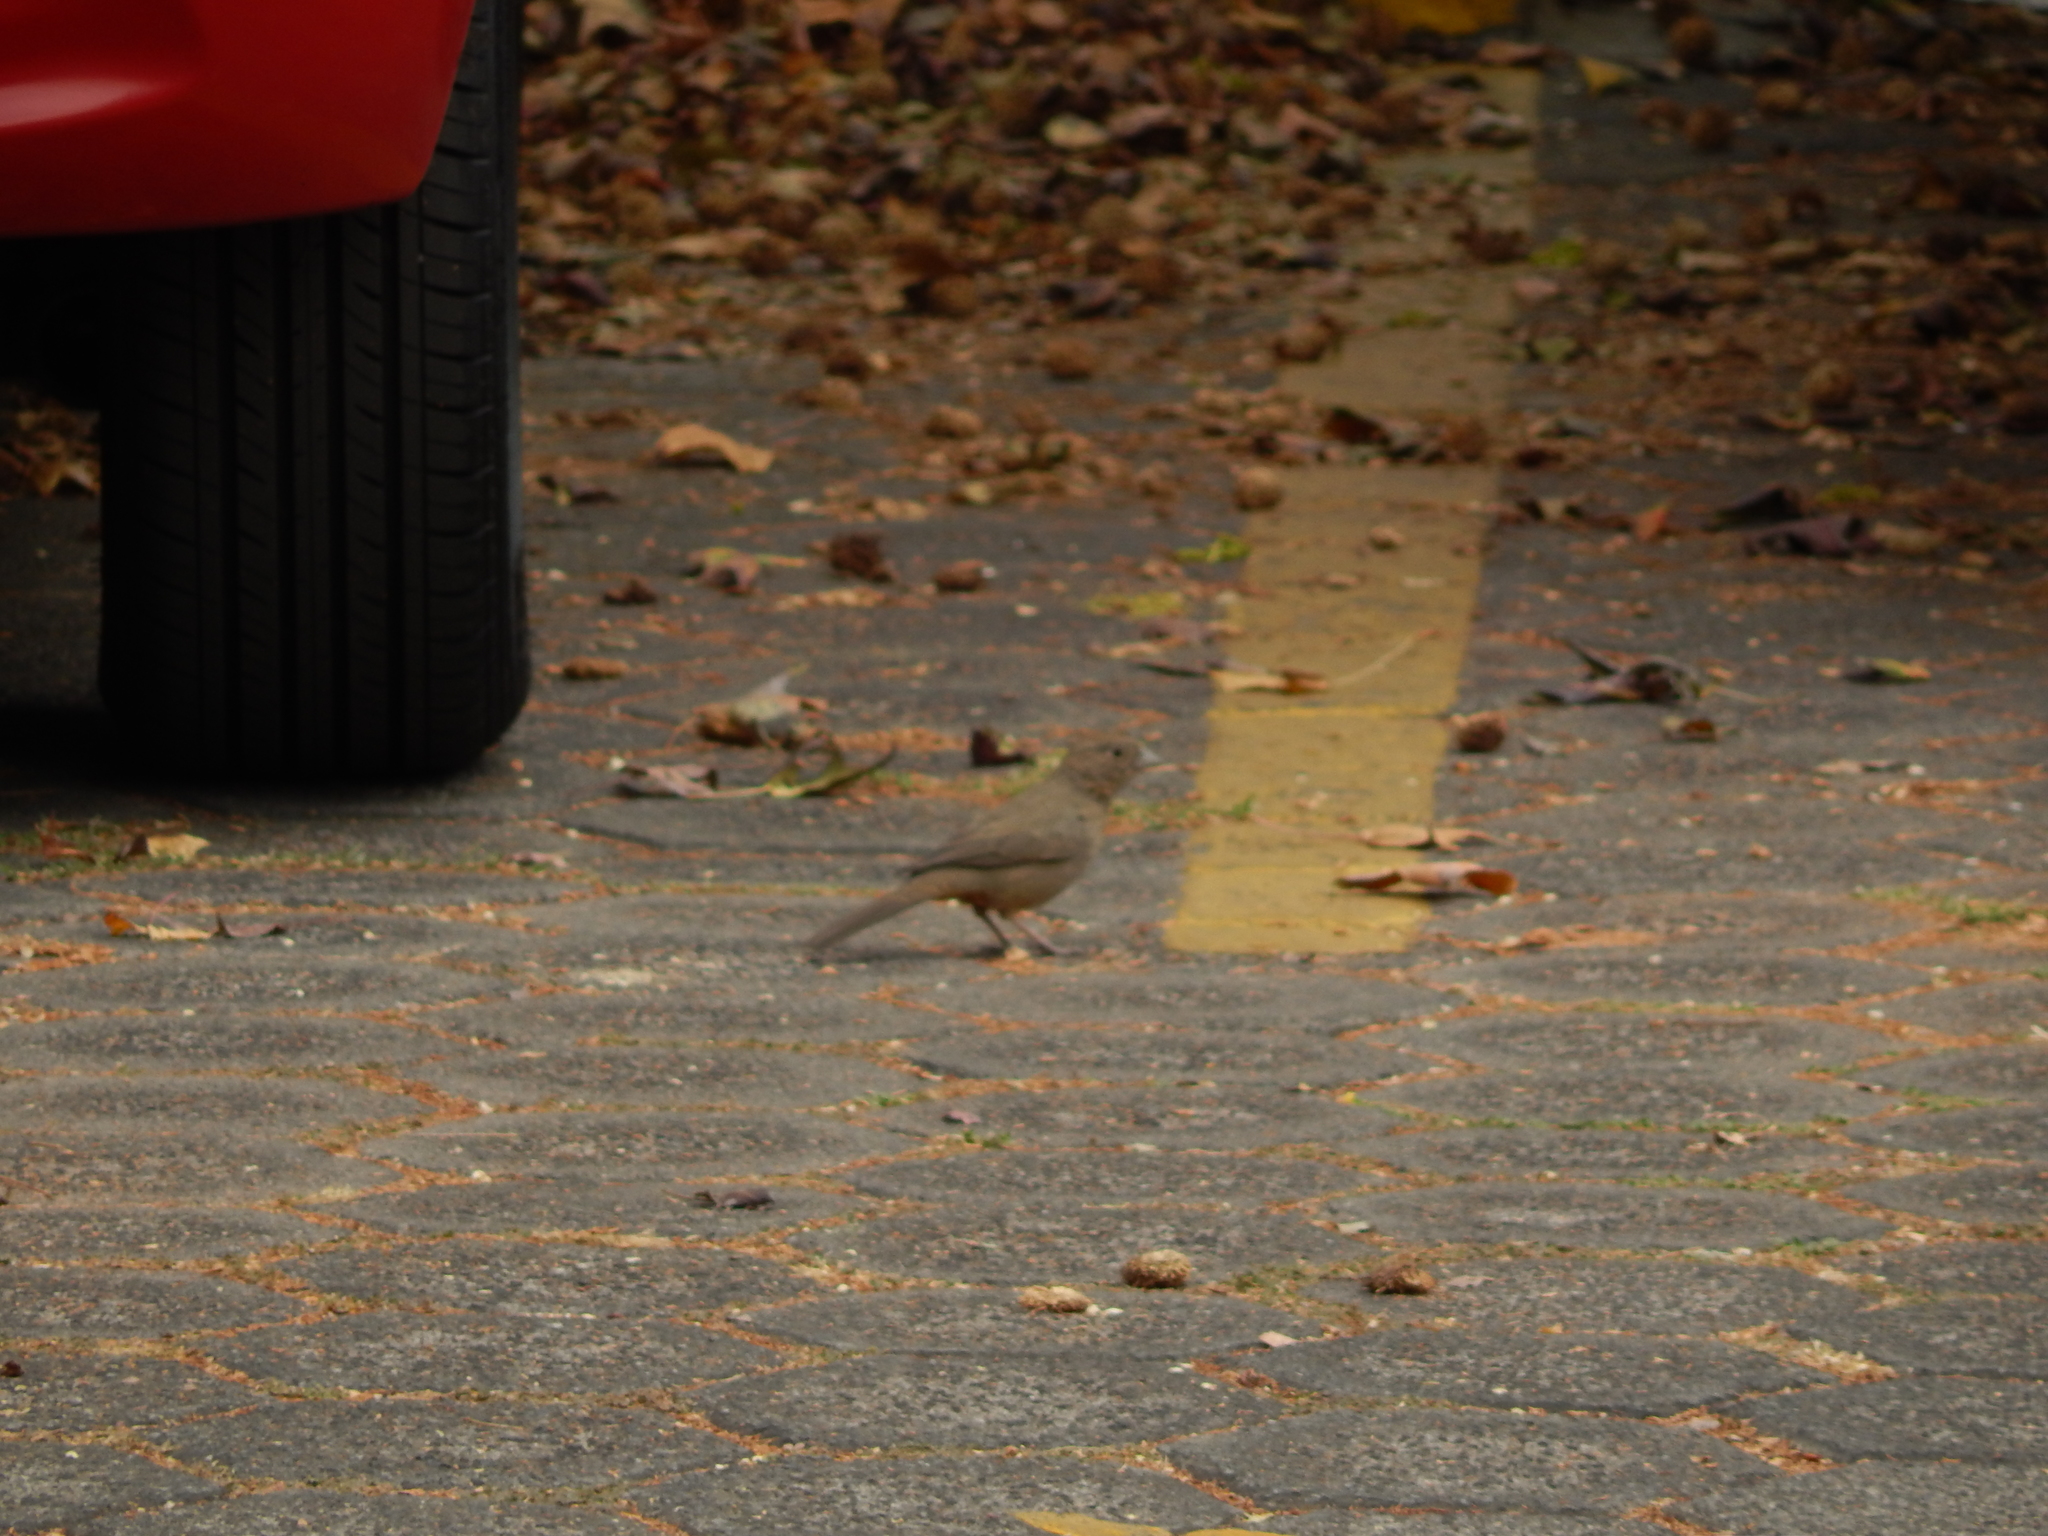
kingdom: Animalia
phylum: Chordata
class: Aves
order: Passeriformes
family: Passerellidae
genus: Melozone
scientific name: Melozone fusca
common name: Canyon towhee
